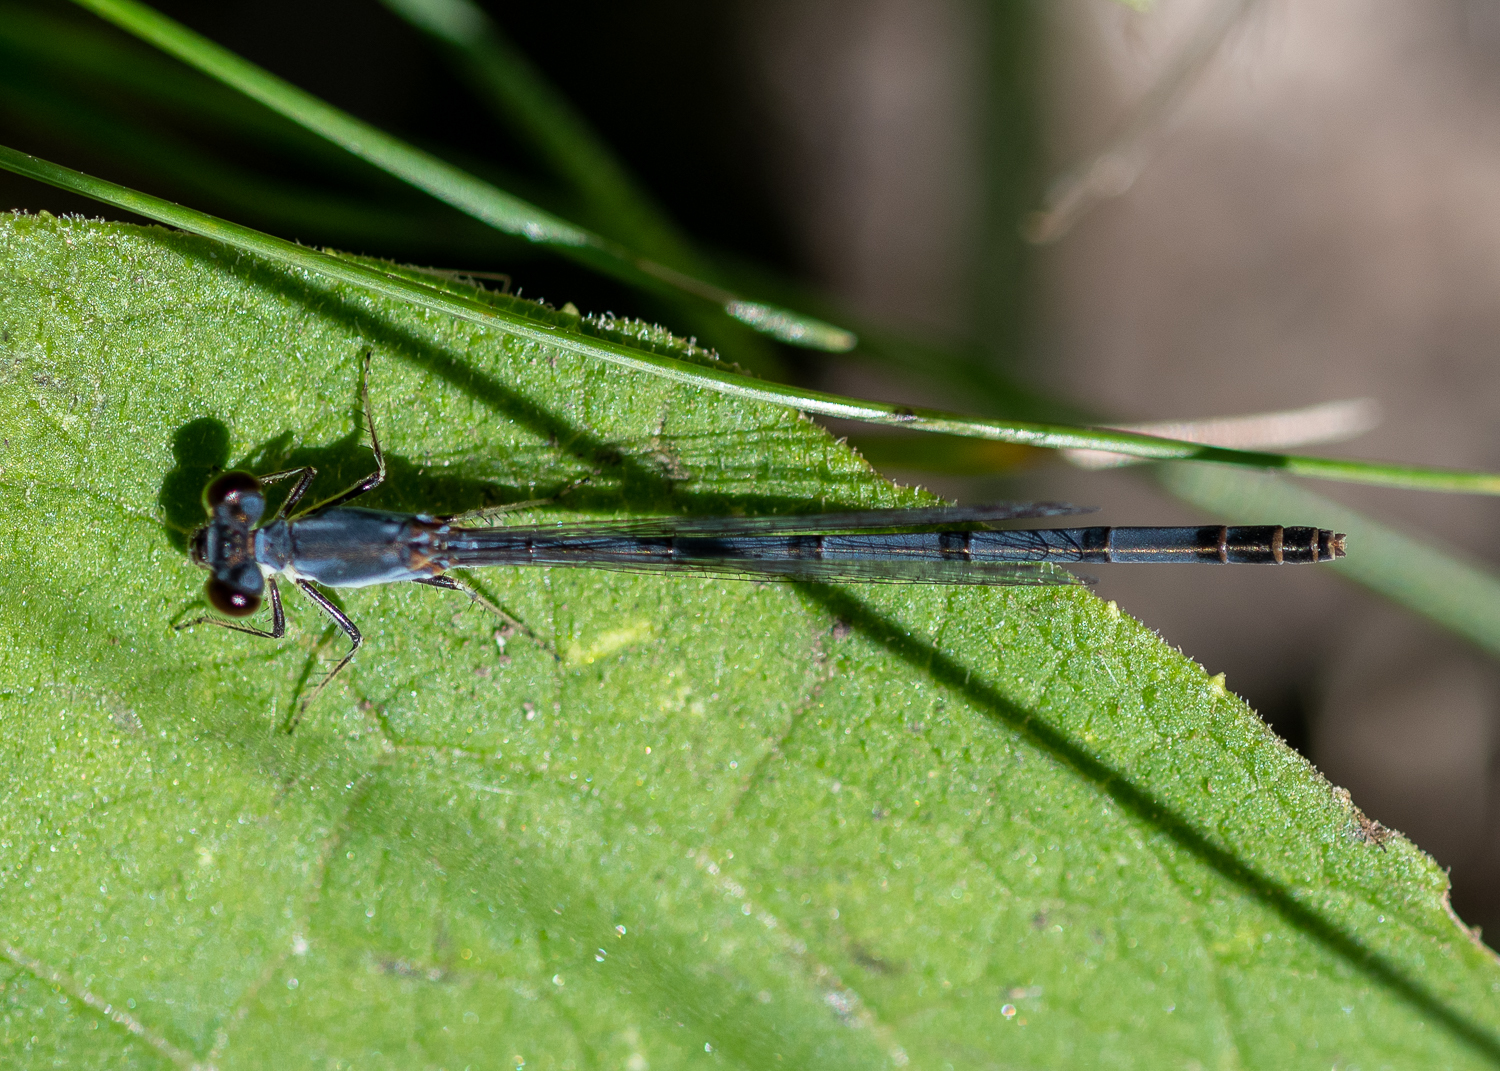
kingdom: Animalia
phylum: Arthropoda
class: Insecta
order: Odonata
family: Coenagrionidae
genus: Ischnura
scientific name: Ischnura posita
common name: Fragile forktail
